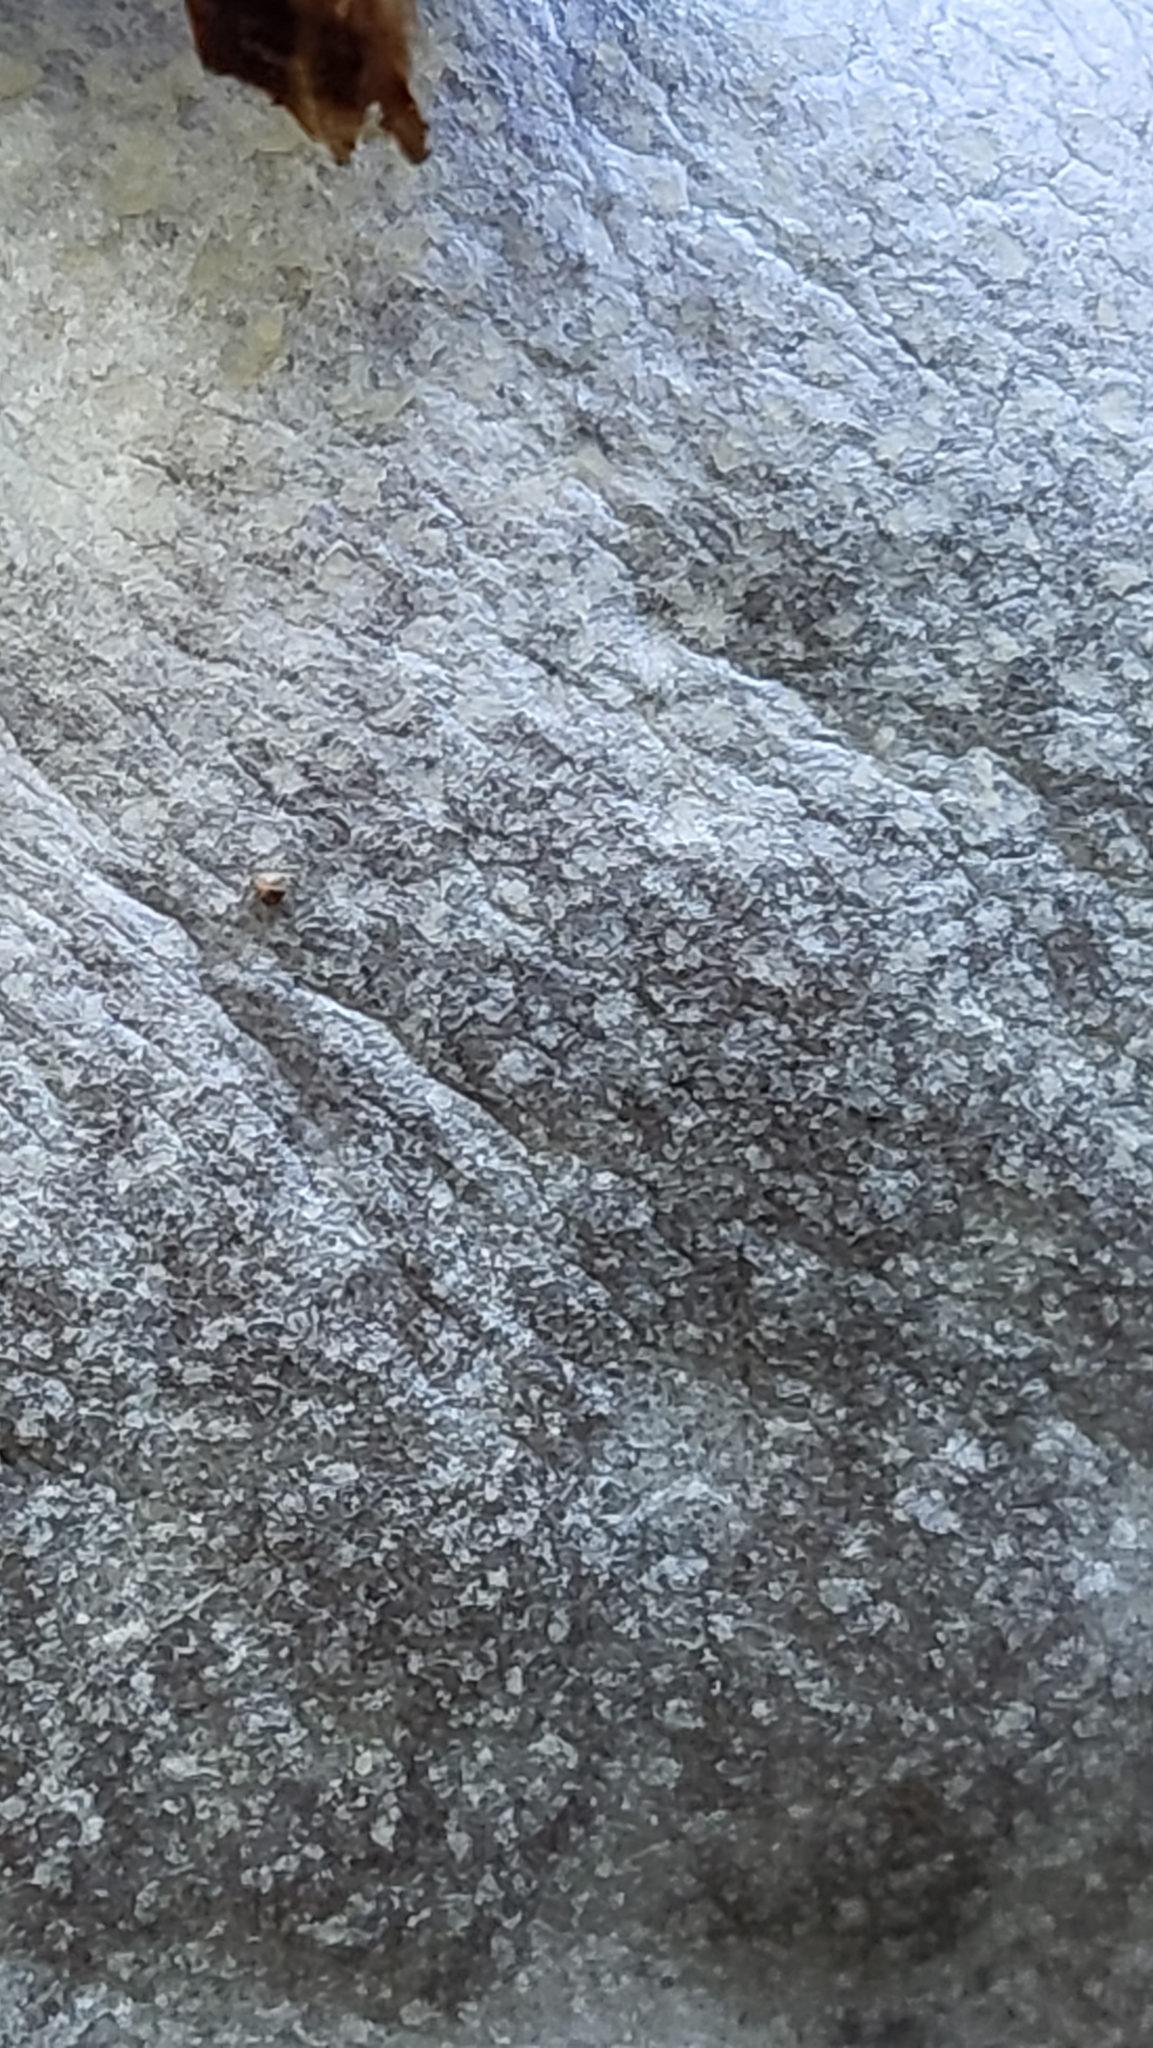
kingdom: Protozoa
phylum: Mycetozoa
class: Myxomycetes
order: Cribrariales
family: Tubiferaceae
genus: Reticularia
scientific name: Reticularia lycoperdon
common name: False puffball
